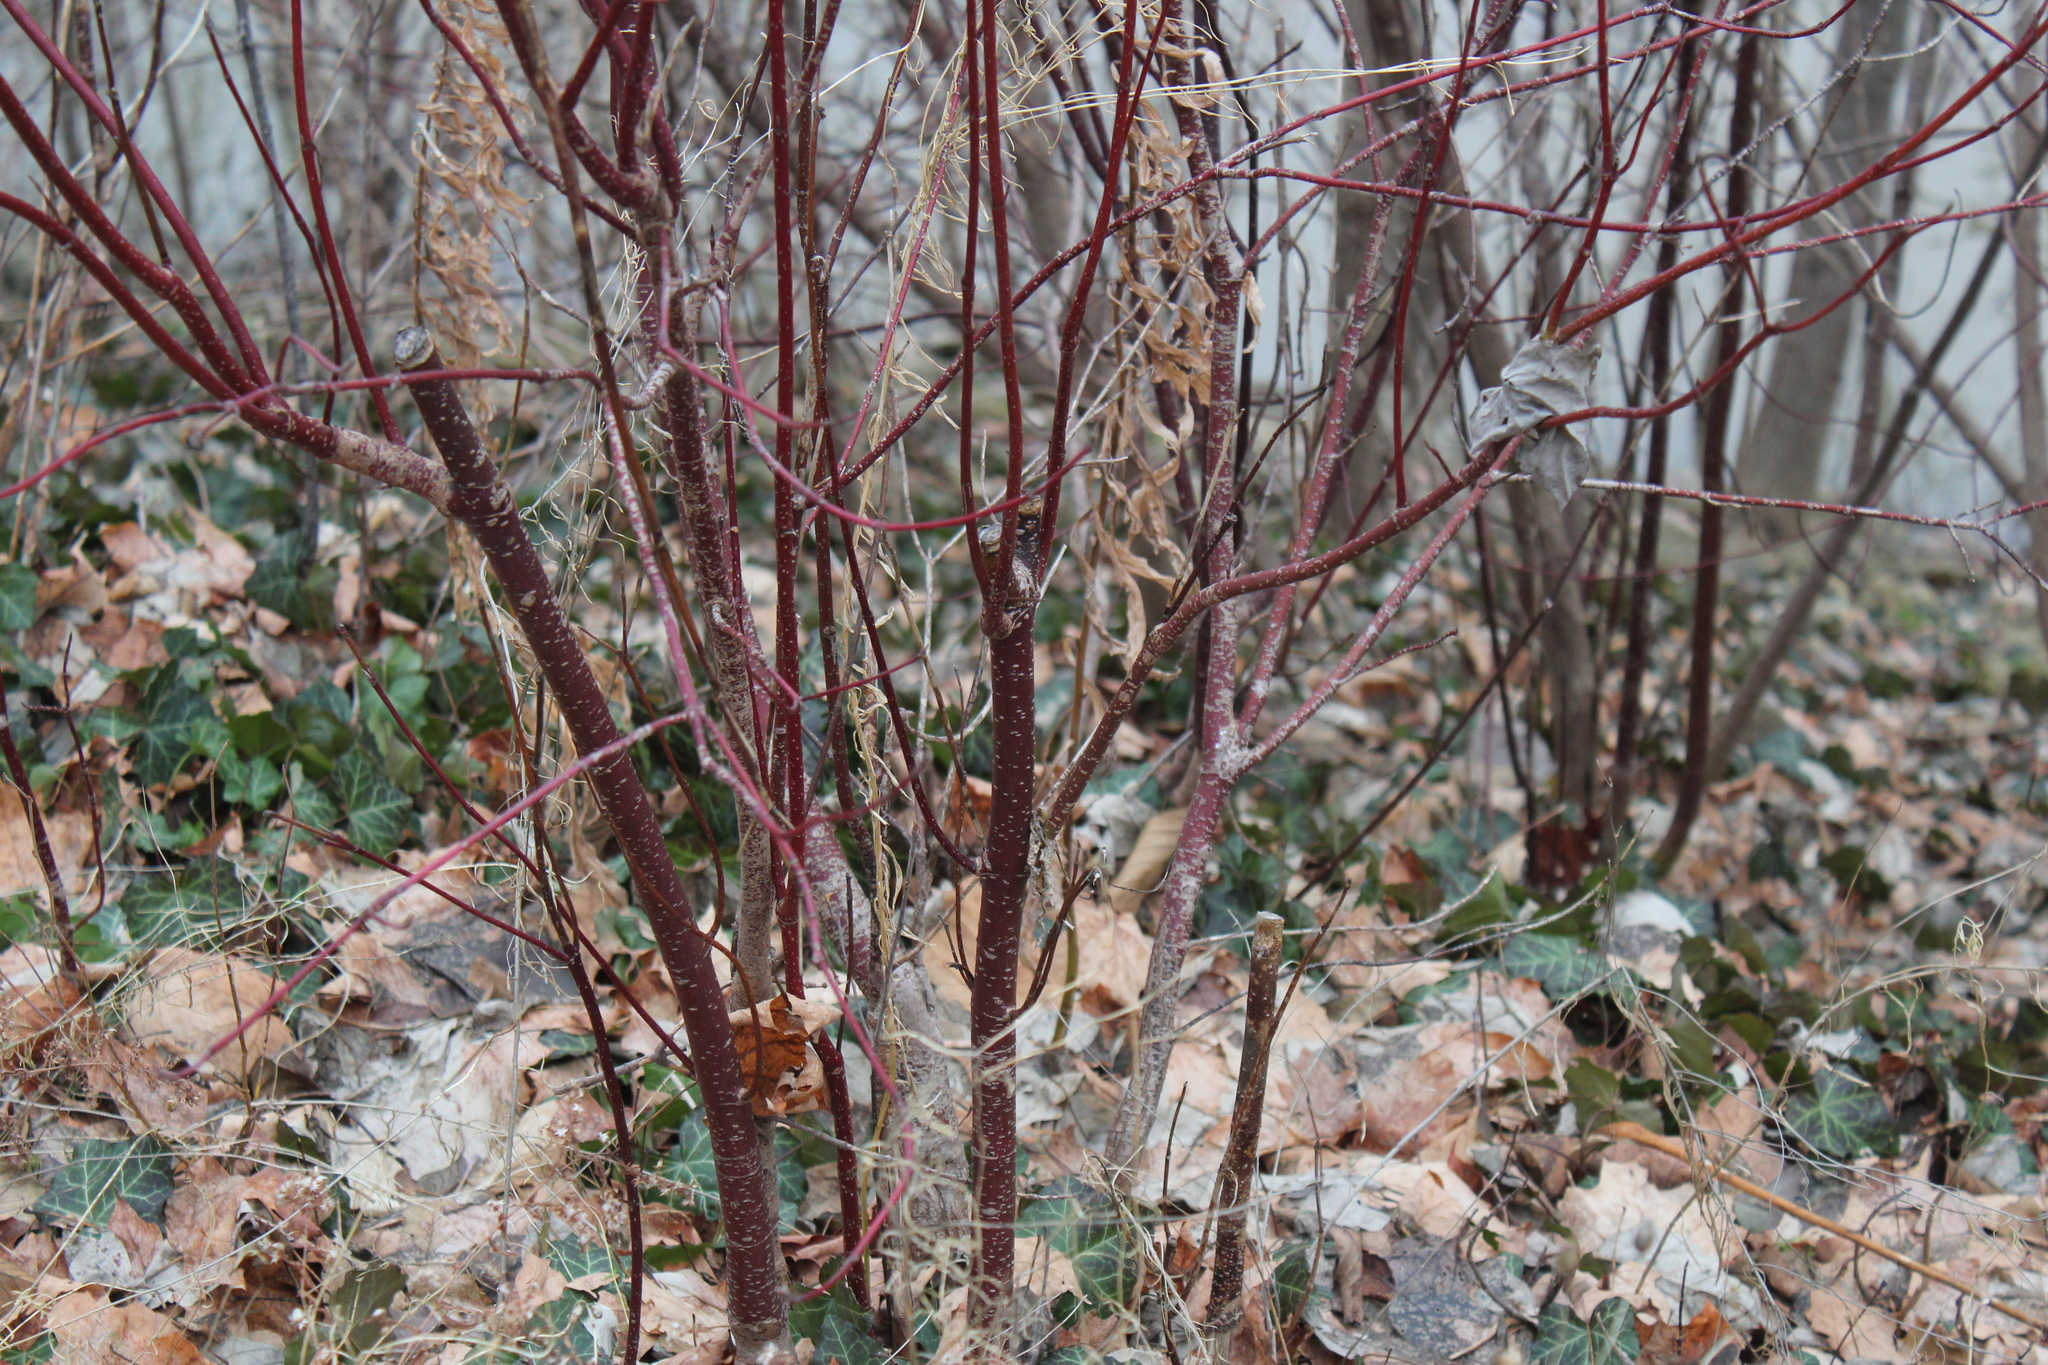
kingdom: Plantae
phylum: Tracheophyta
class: Magnoliopsida
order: Cornales
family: Cornaceae
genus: Cornus
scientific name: Cornus sericea
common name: Red-osier dogwood
